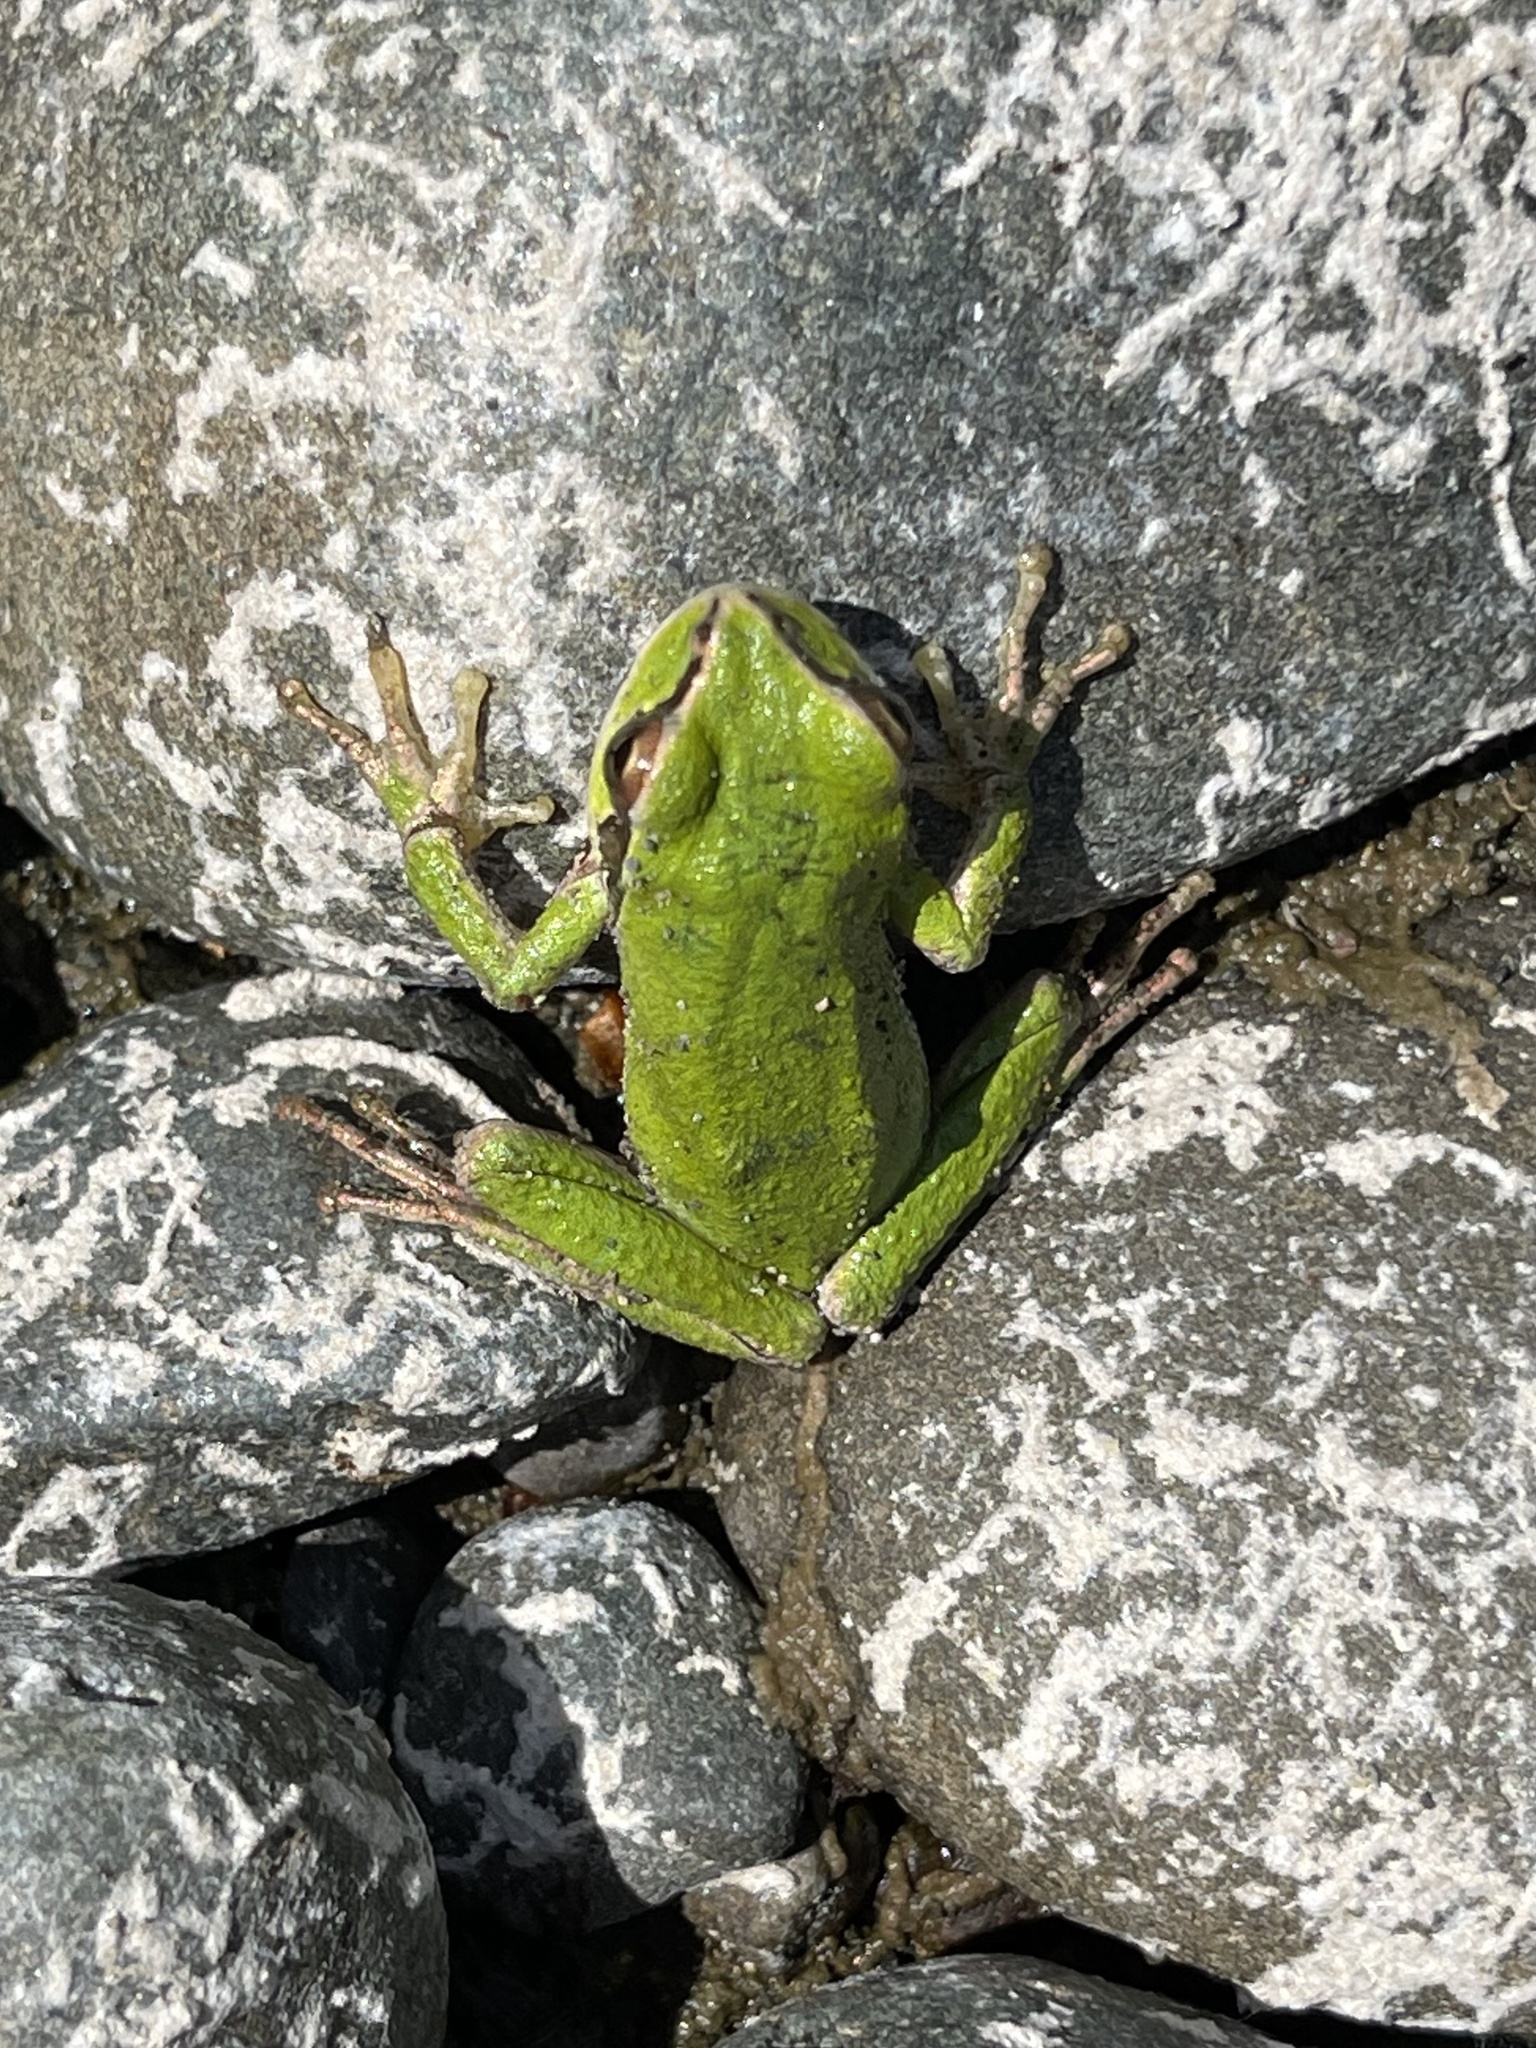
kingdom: Animalia
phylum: Chordata
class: Amphibia
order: Anura
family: Hylidae
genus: Pseudacris
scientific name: Pseudacris regilla
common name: Pacific chorus frog
